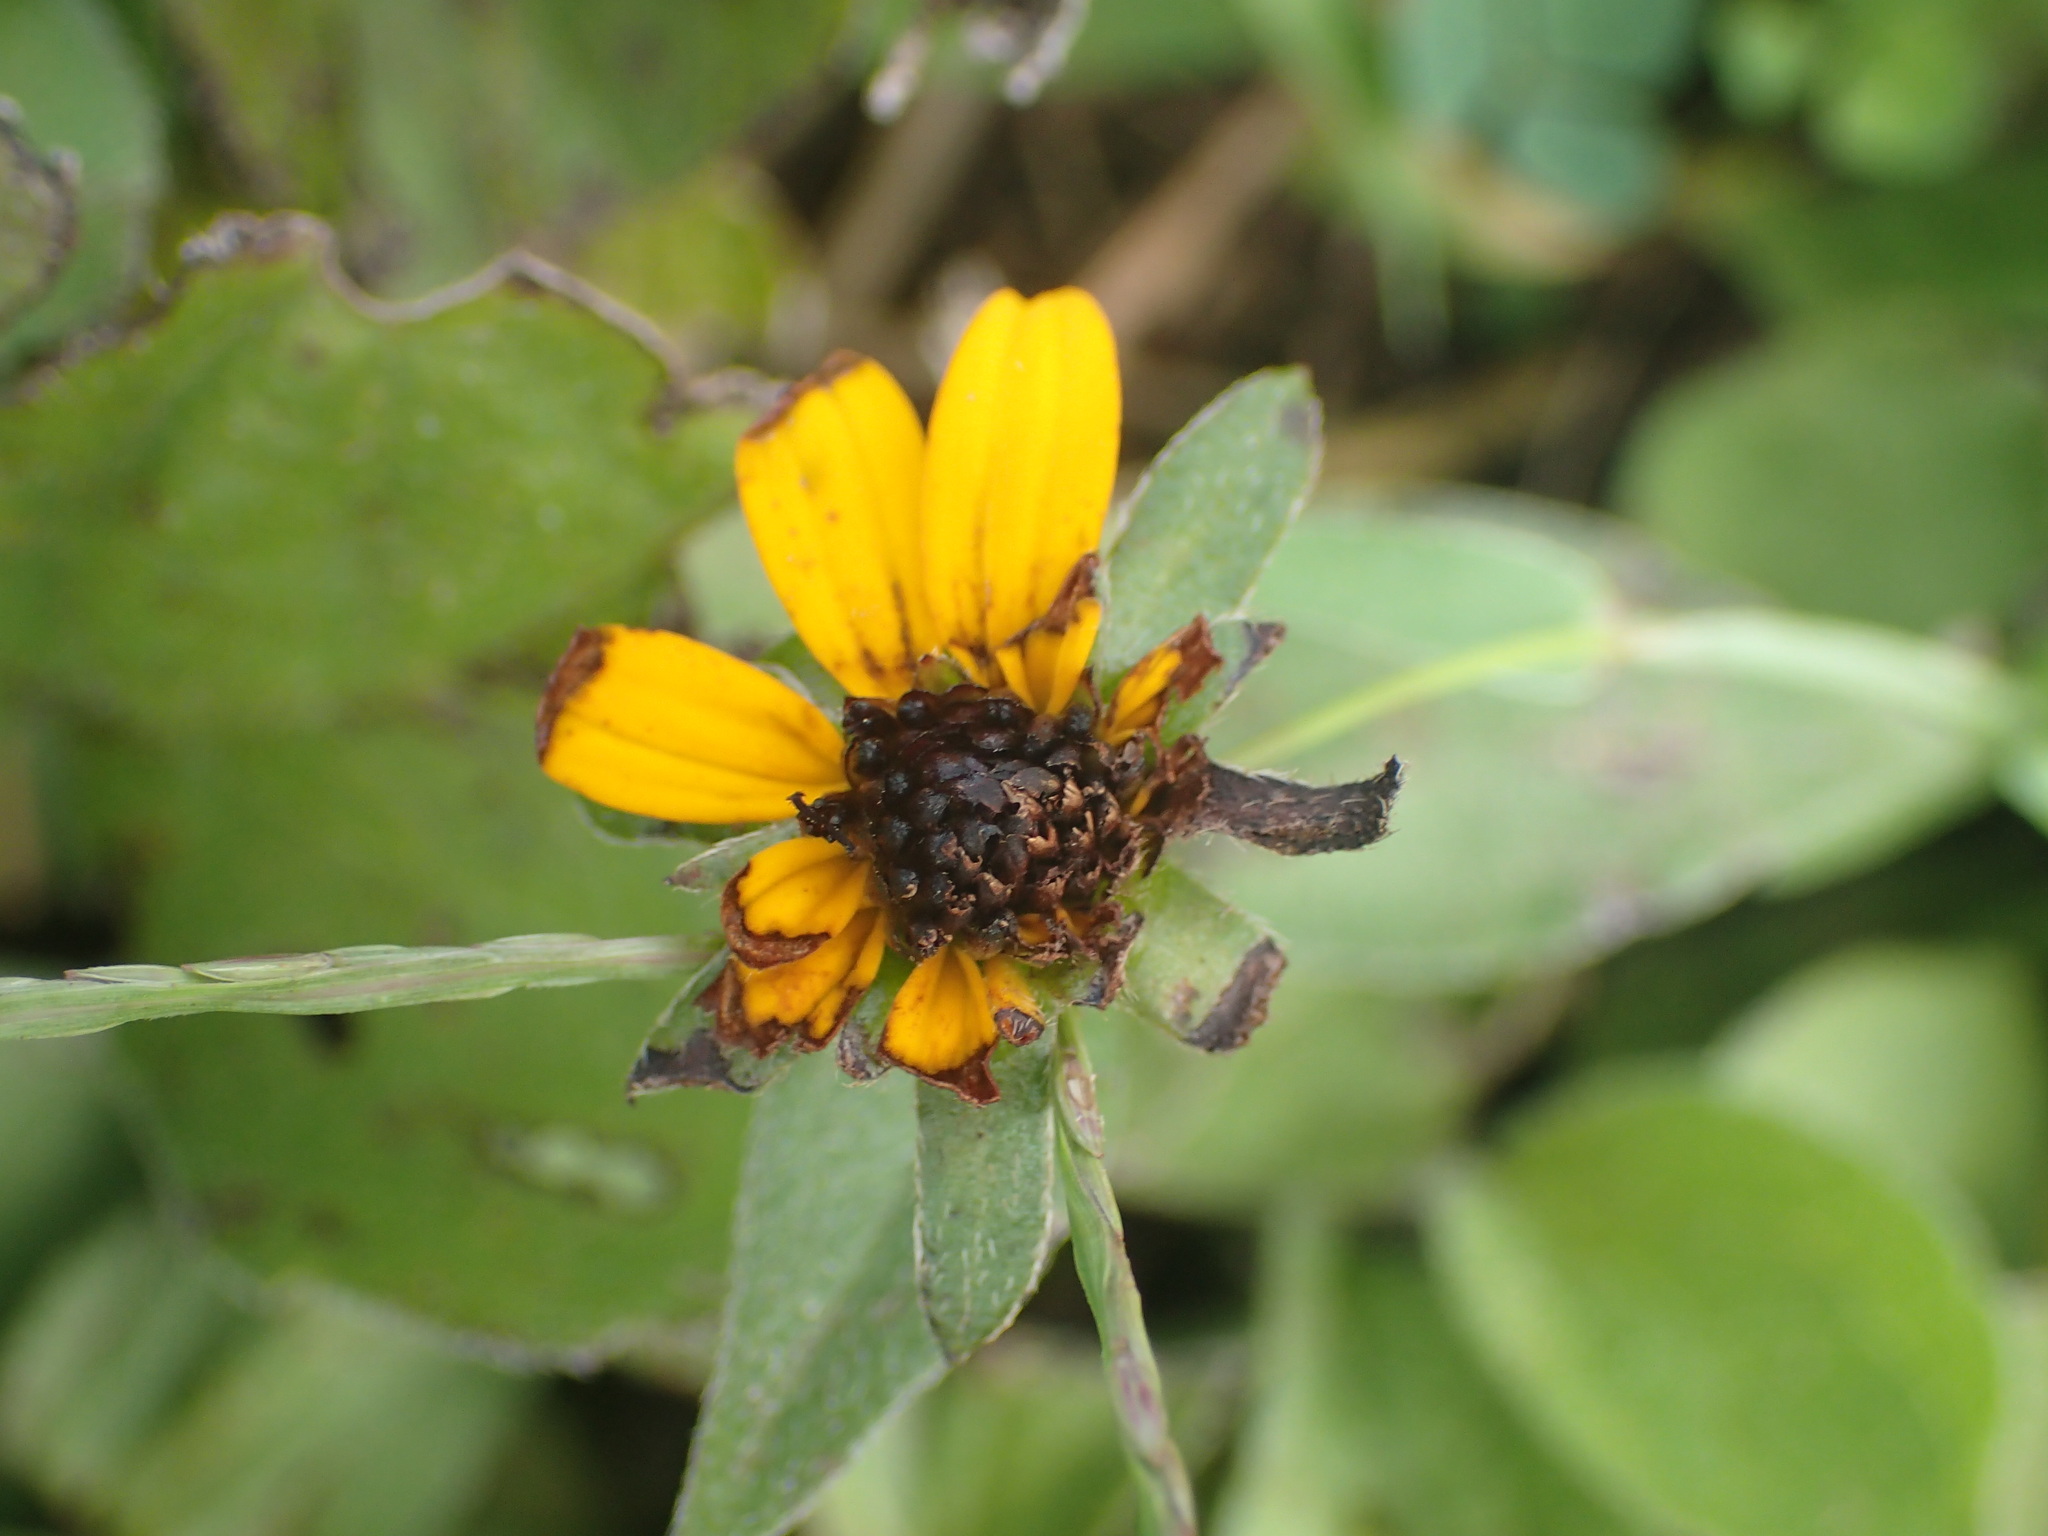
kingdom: Plantae
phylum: Tracheophyta
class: Magnoliopsida
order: Asterales
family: Asteraceae
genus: Rudbeckia
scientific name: Rudbeckia hirta
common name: Black-eyed-susan
